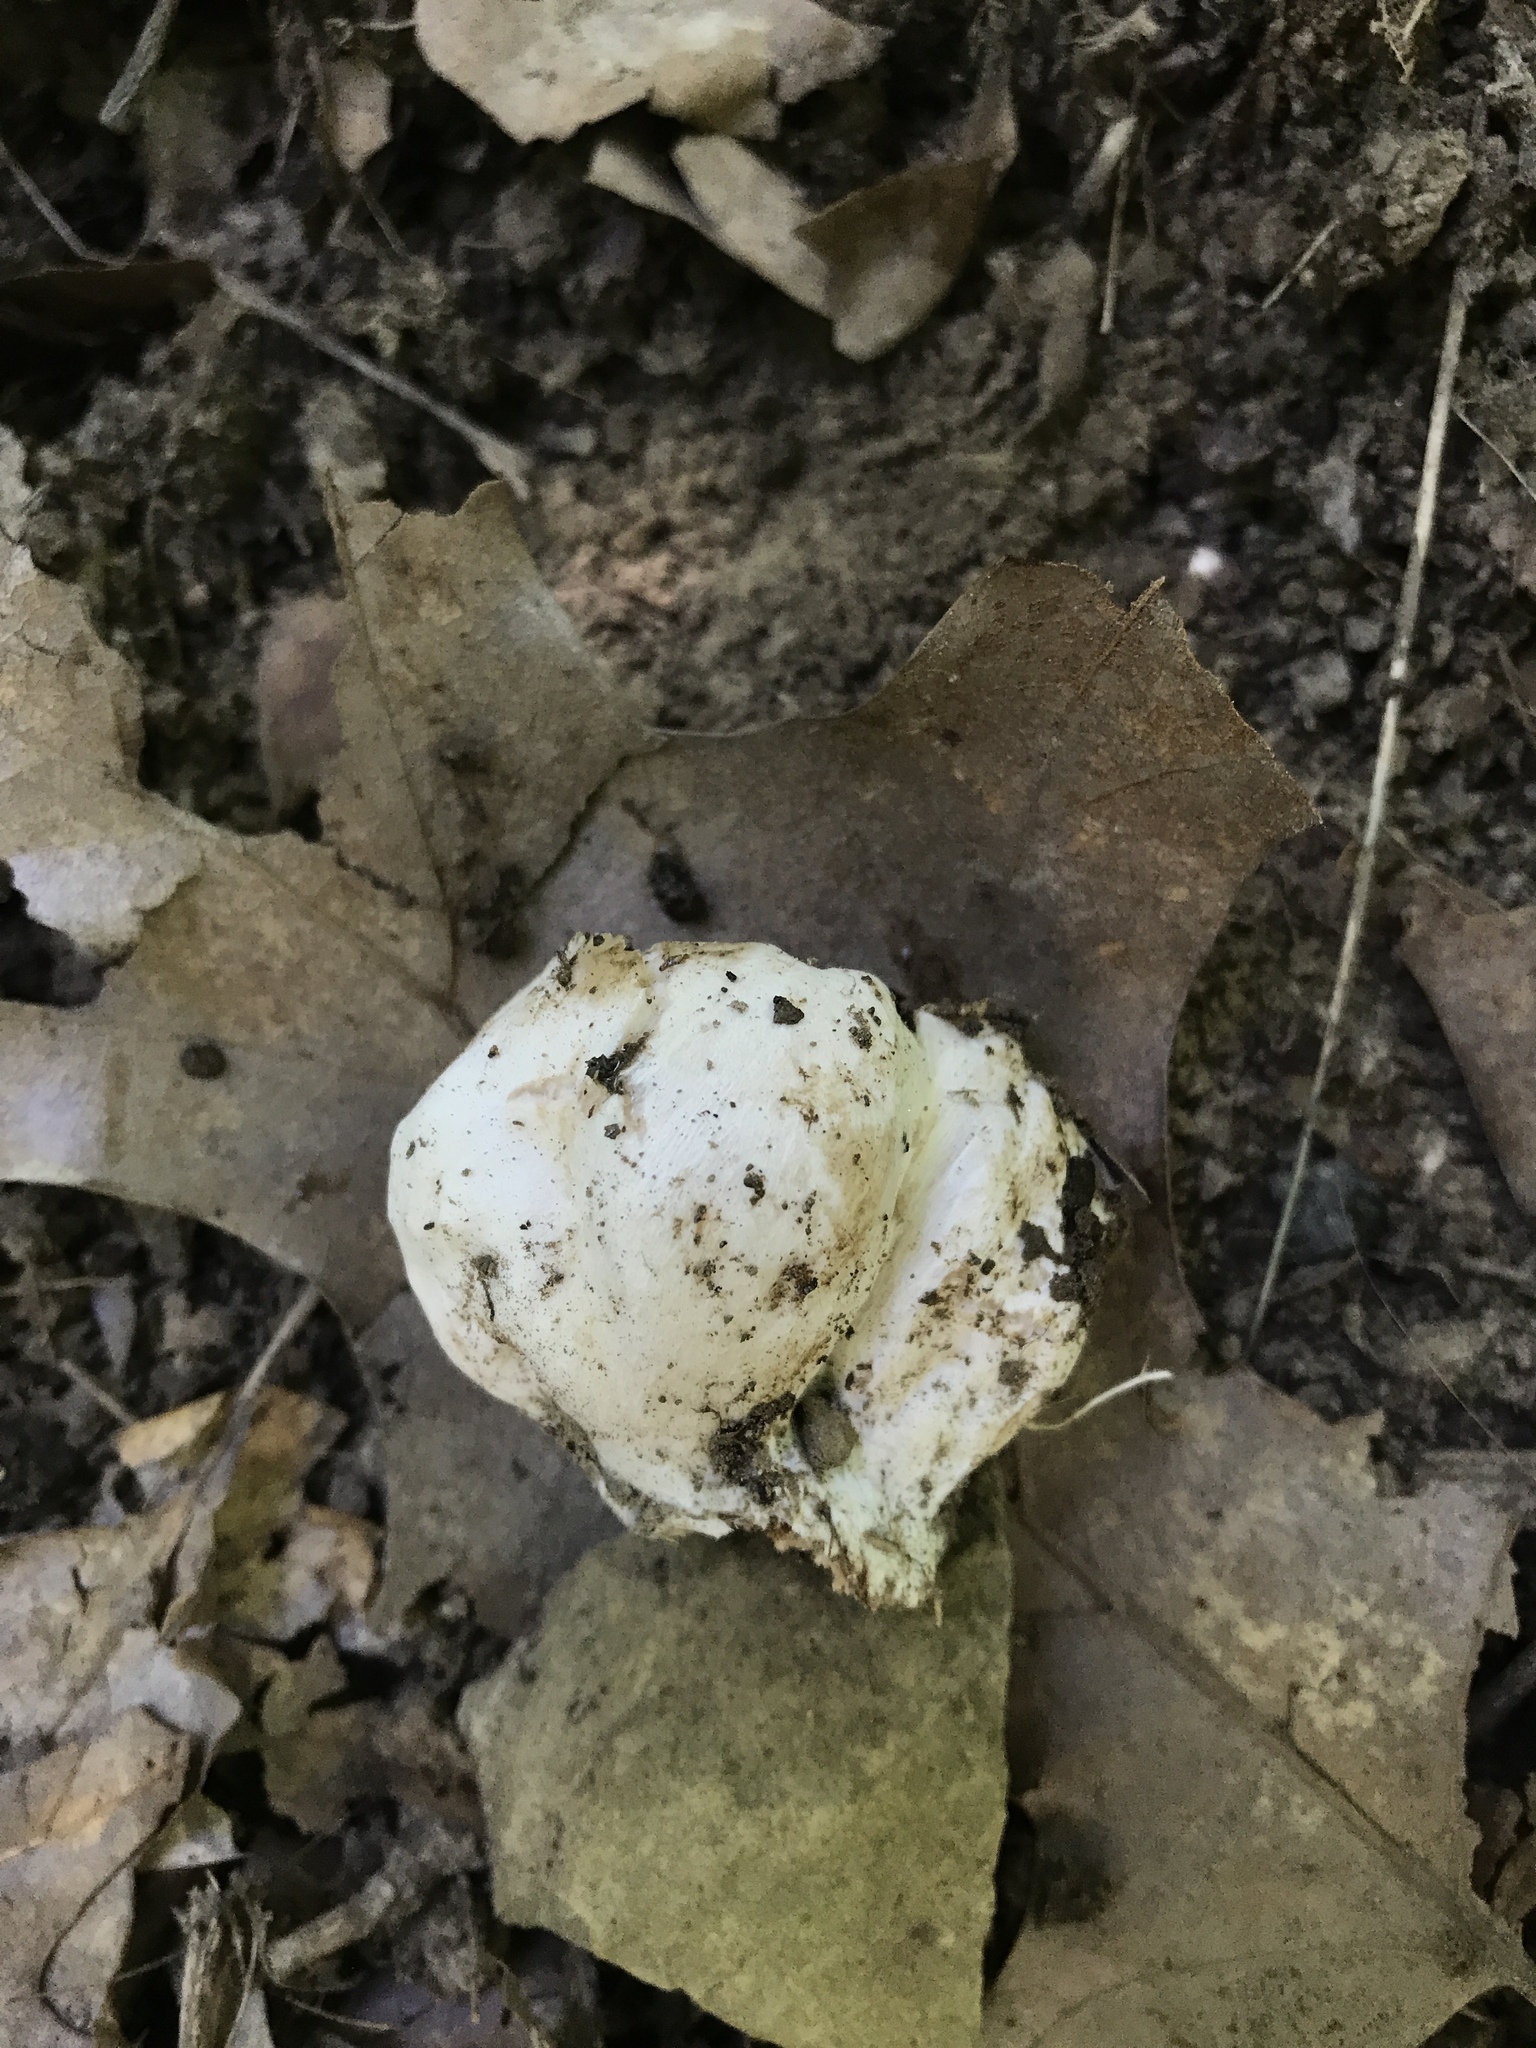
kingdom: Fungi
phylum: Basidiomycota
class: Agaricomycetes
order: Agaricales
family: Entolomataceae
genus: Entoloma
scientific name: Entoloma abortivum
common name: Aborted entoloma
